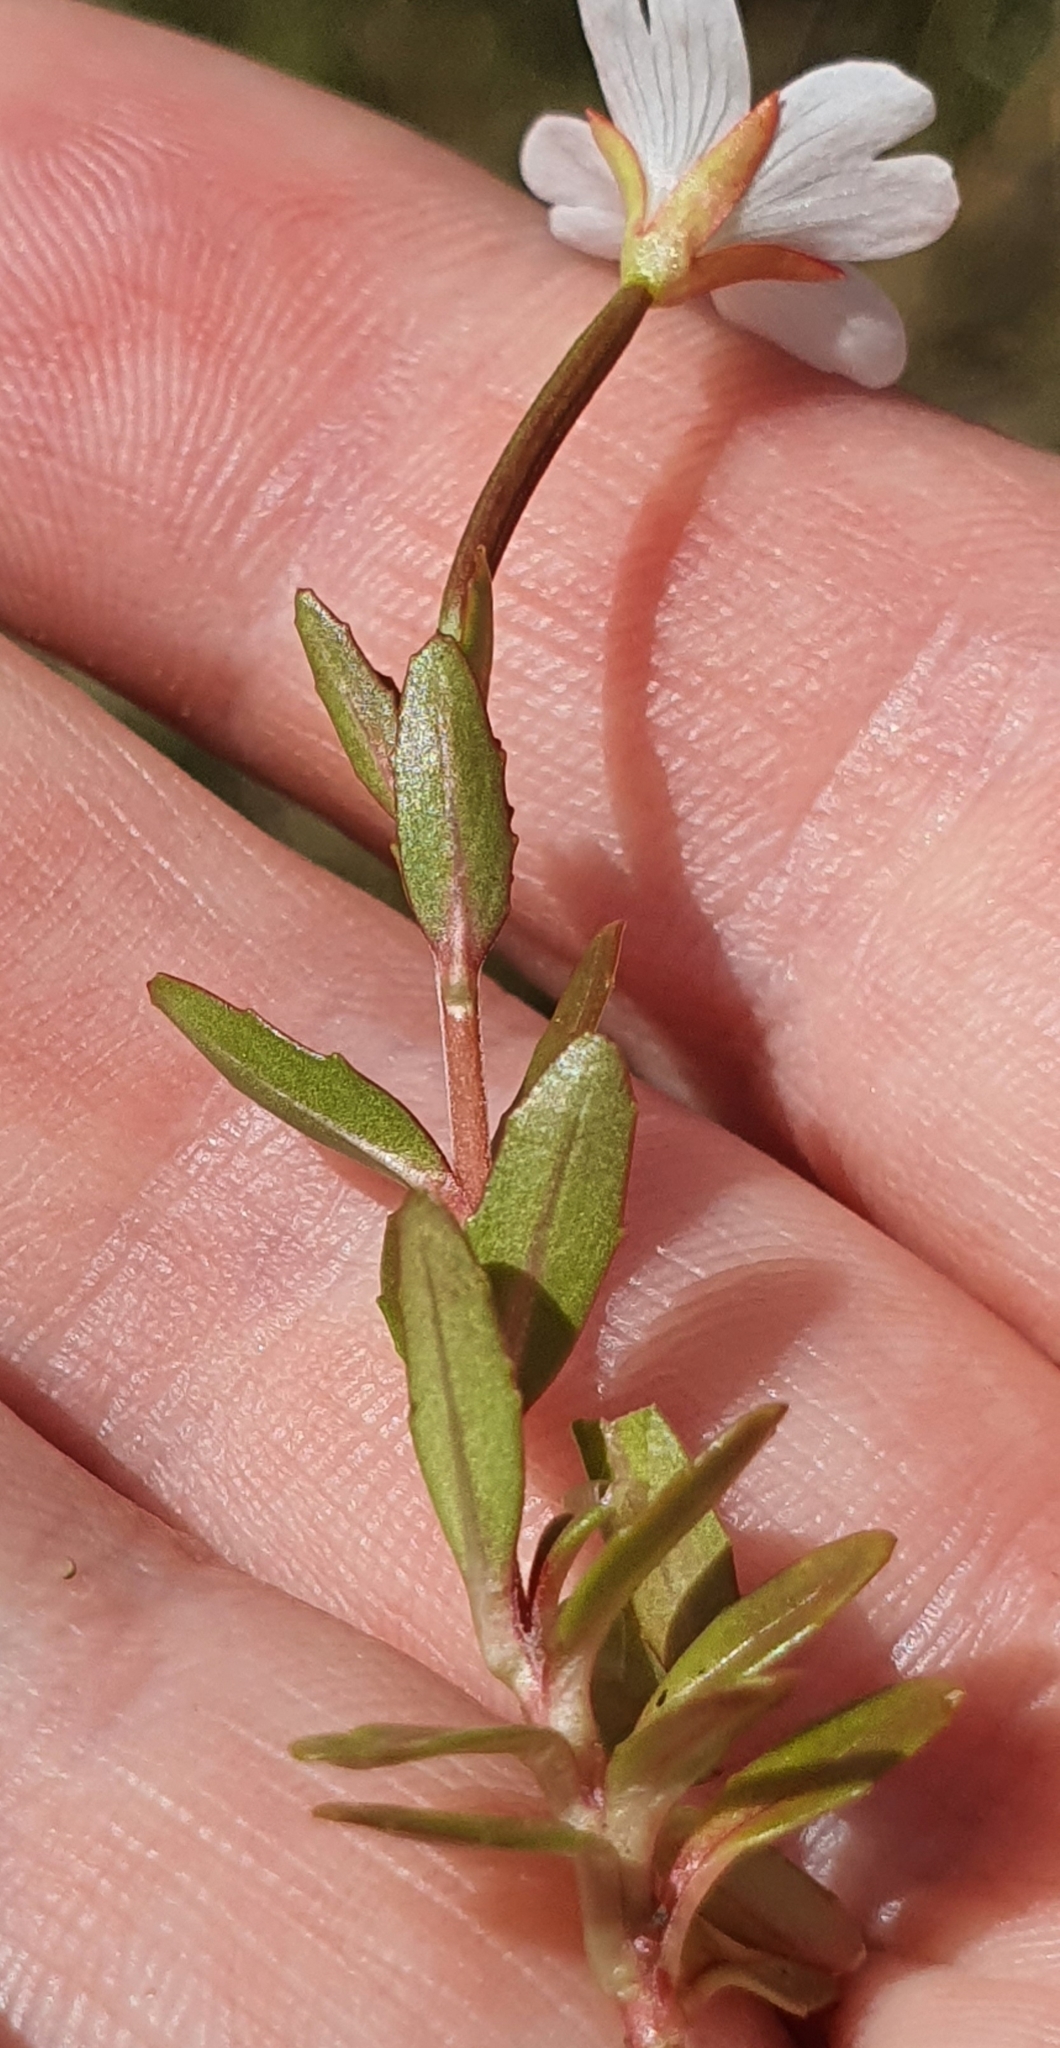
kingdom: Plantae
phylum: Tracheophyta
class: Magnoliopsida
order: Myrtales
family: Onagraceae
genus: Epilobium
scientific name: Epilobium alsinoides
